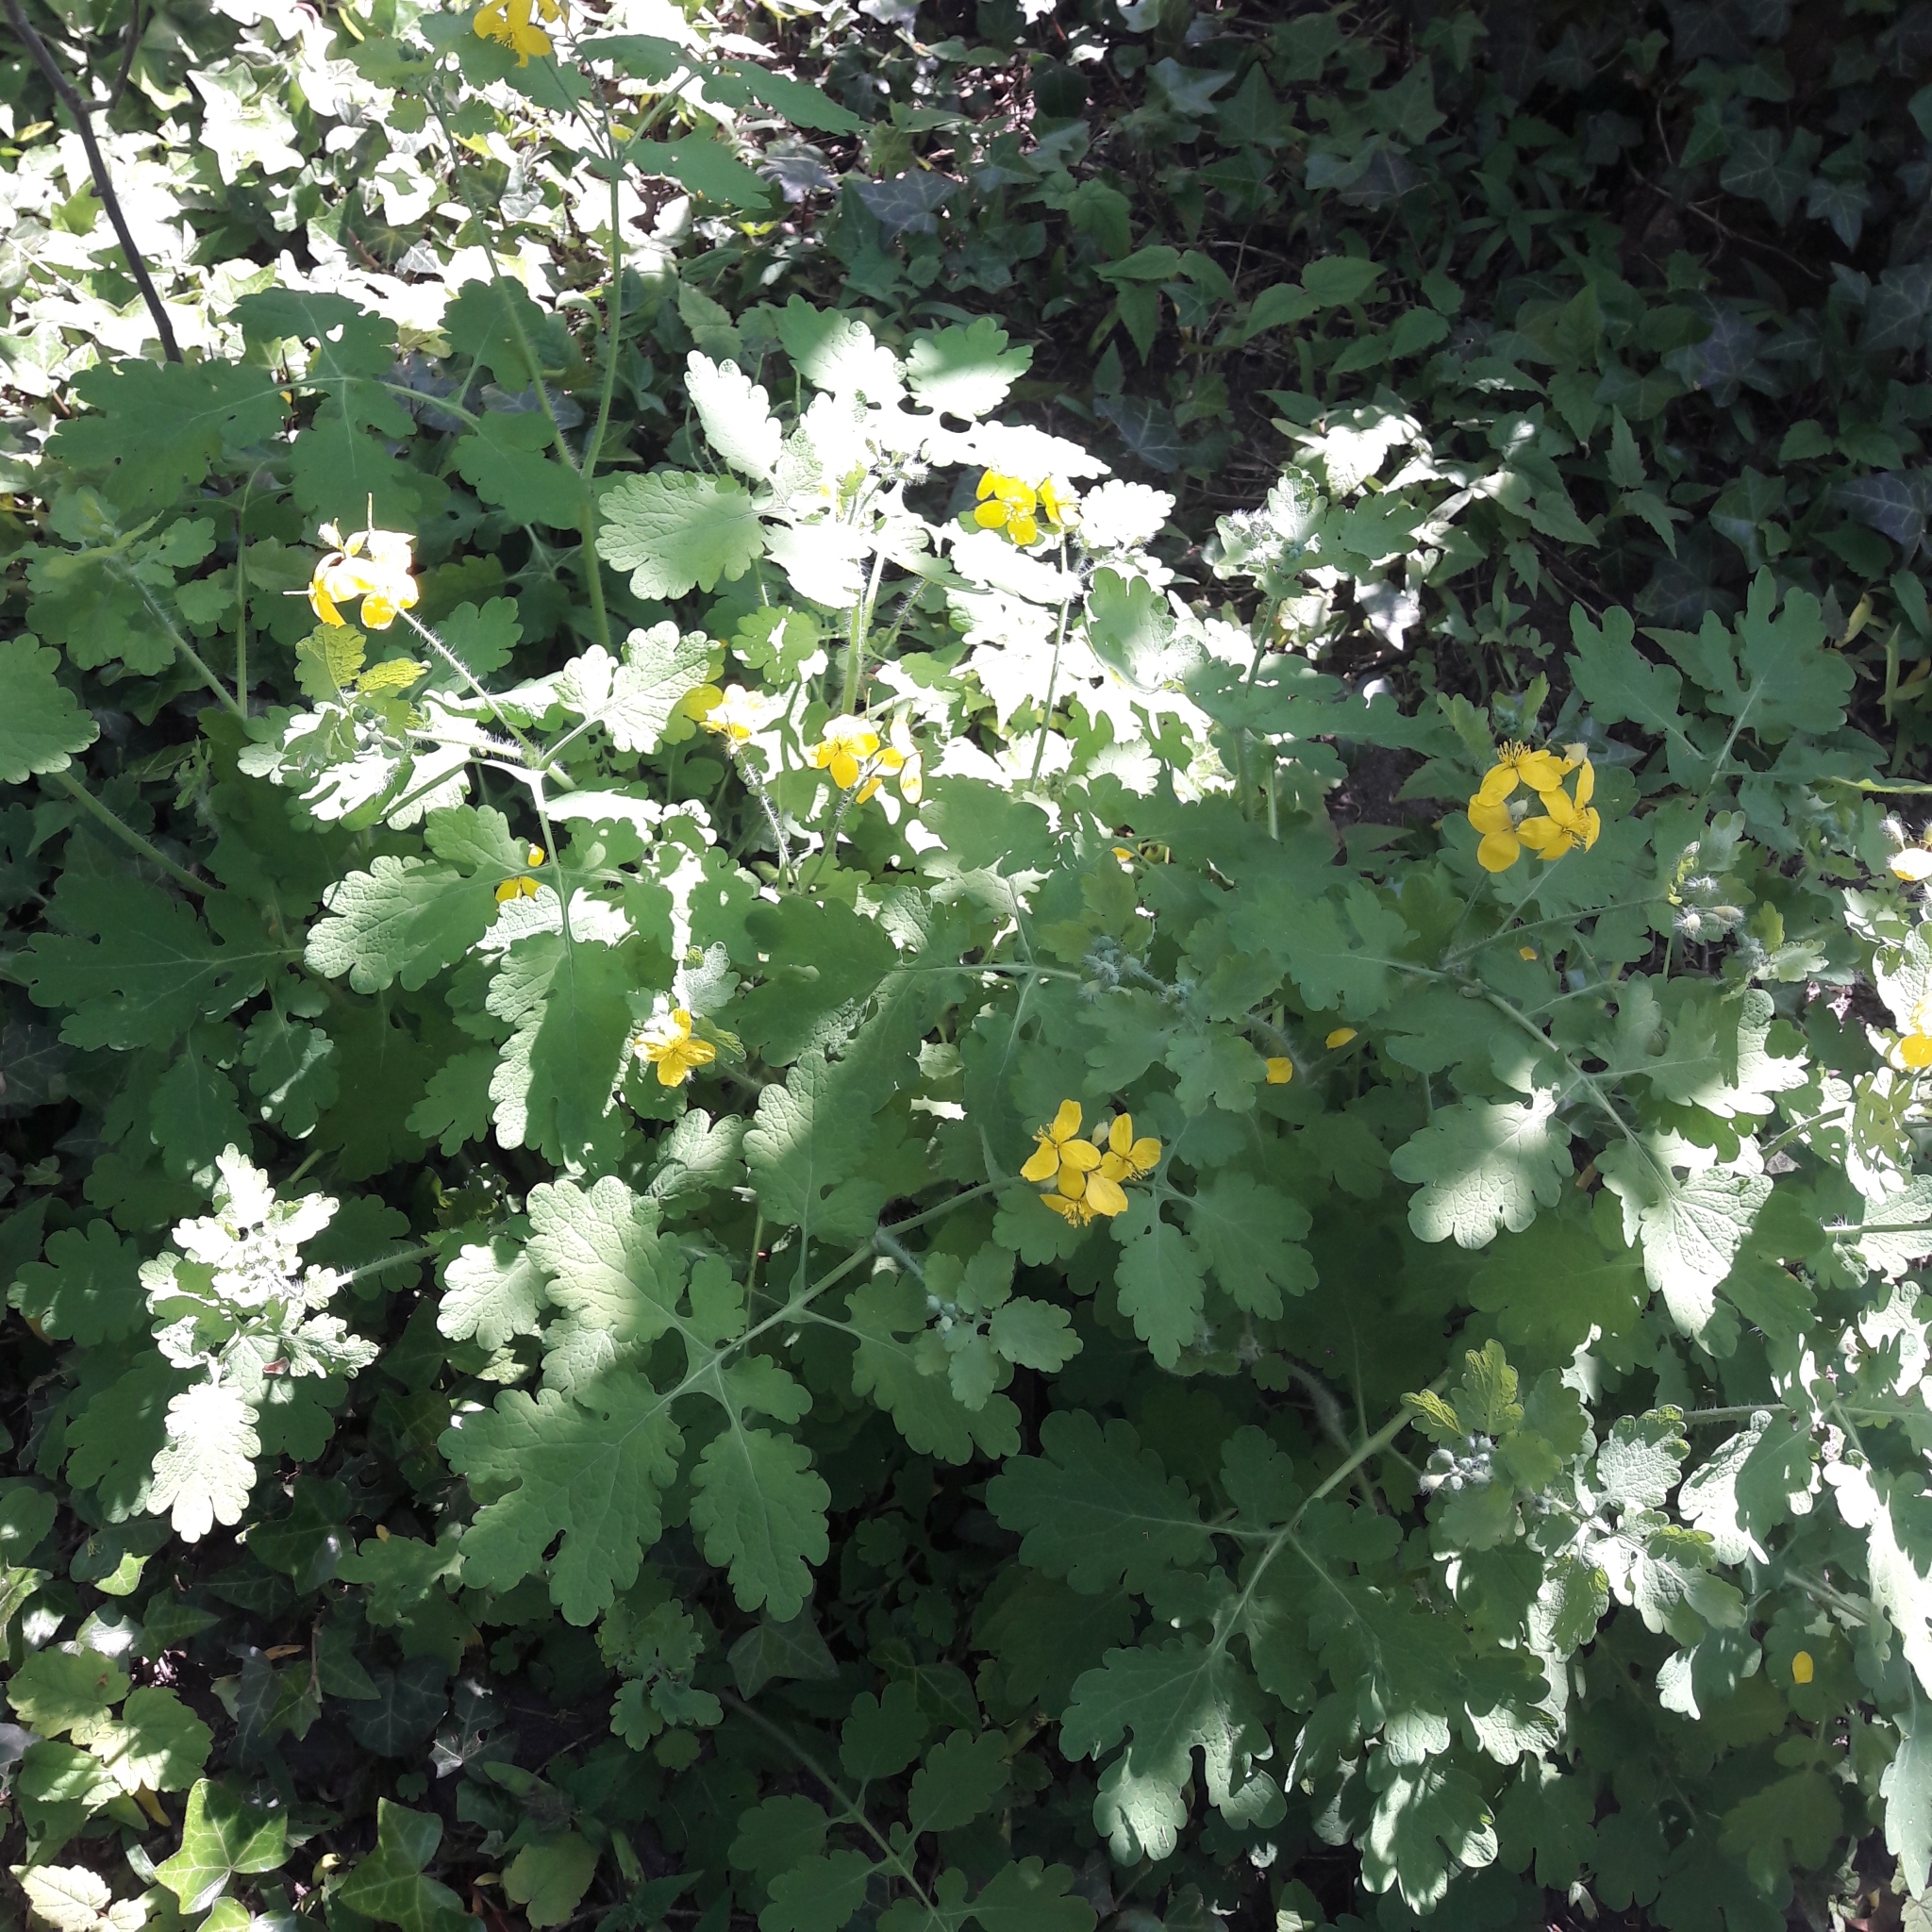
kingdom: Plantae
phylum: Tracheophyta
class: Magnoliopsida
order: Ranunculales
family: Papaveraceae
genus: Chelidonium
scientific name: Chelidonium majus
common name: Greater celandine
